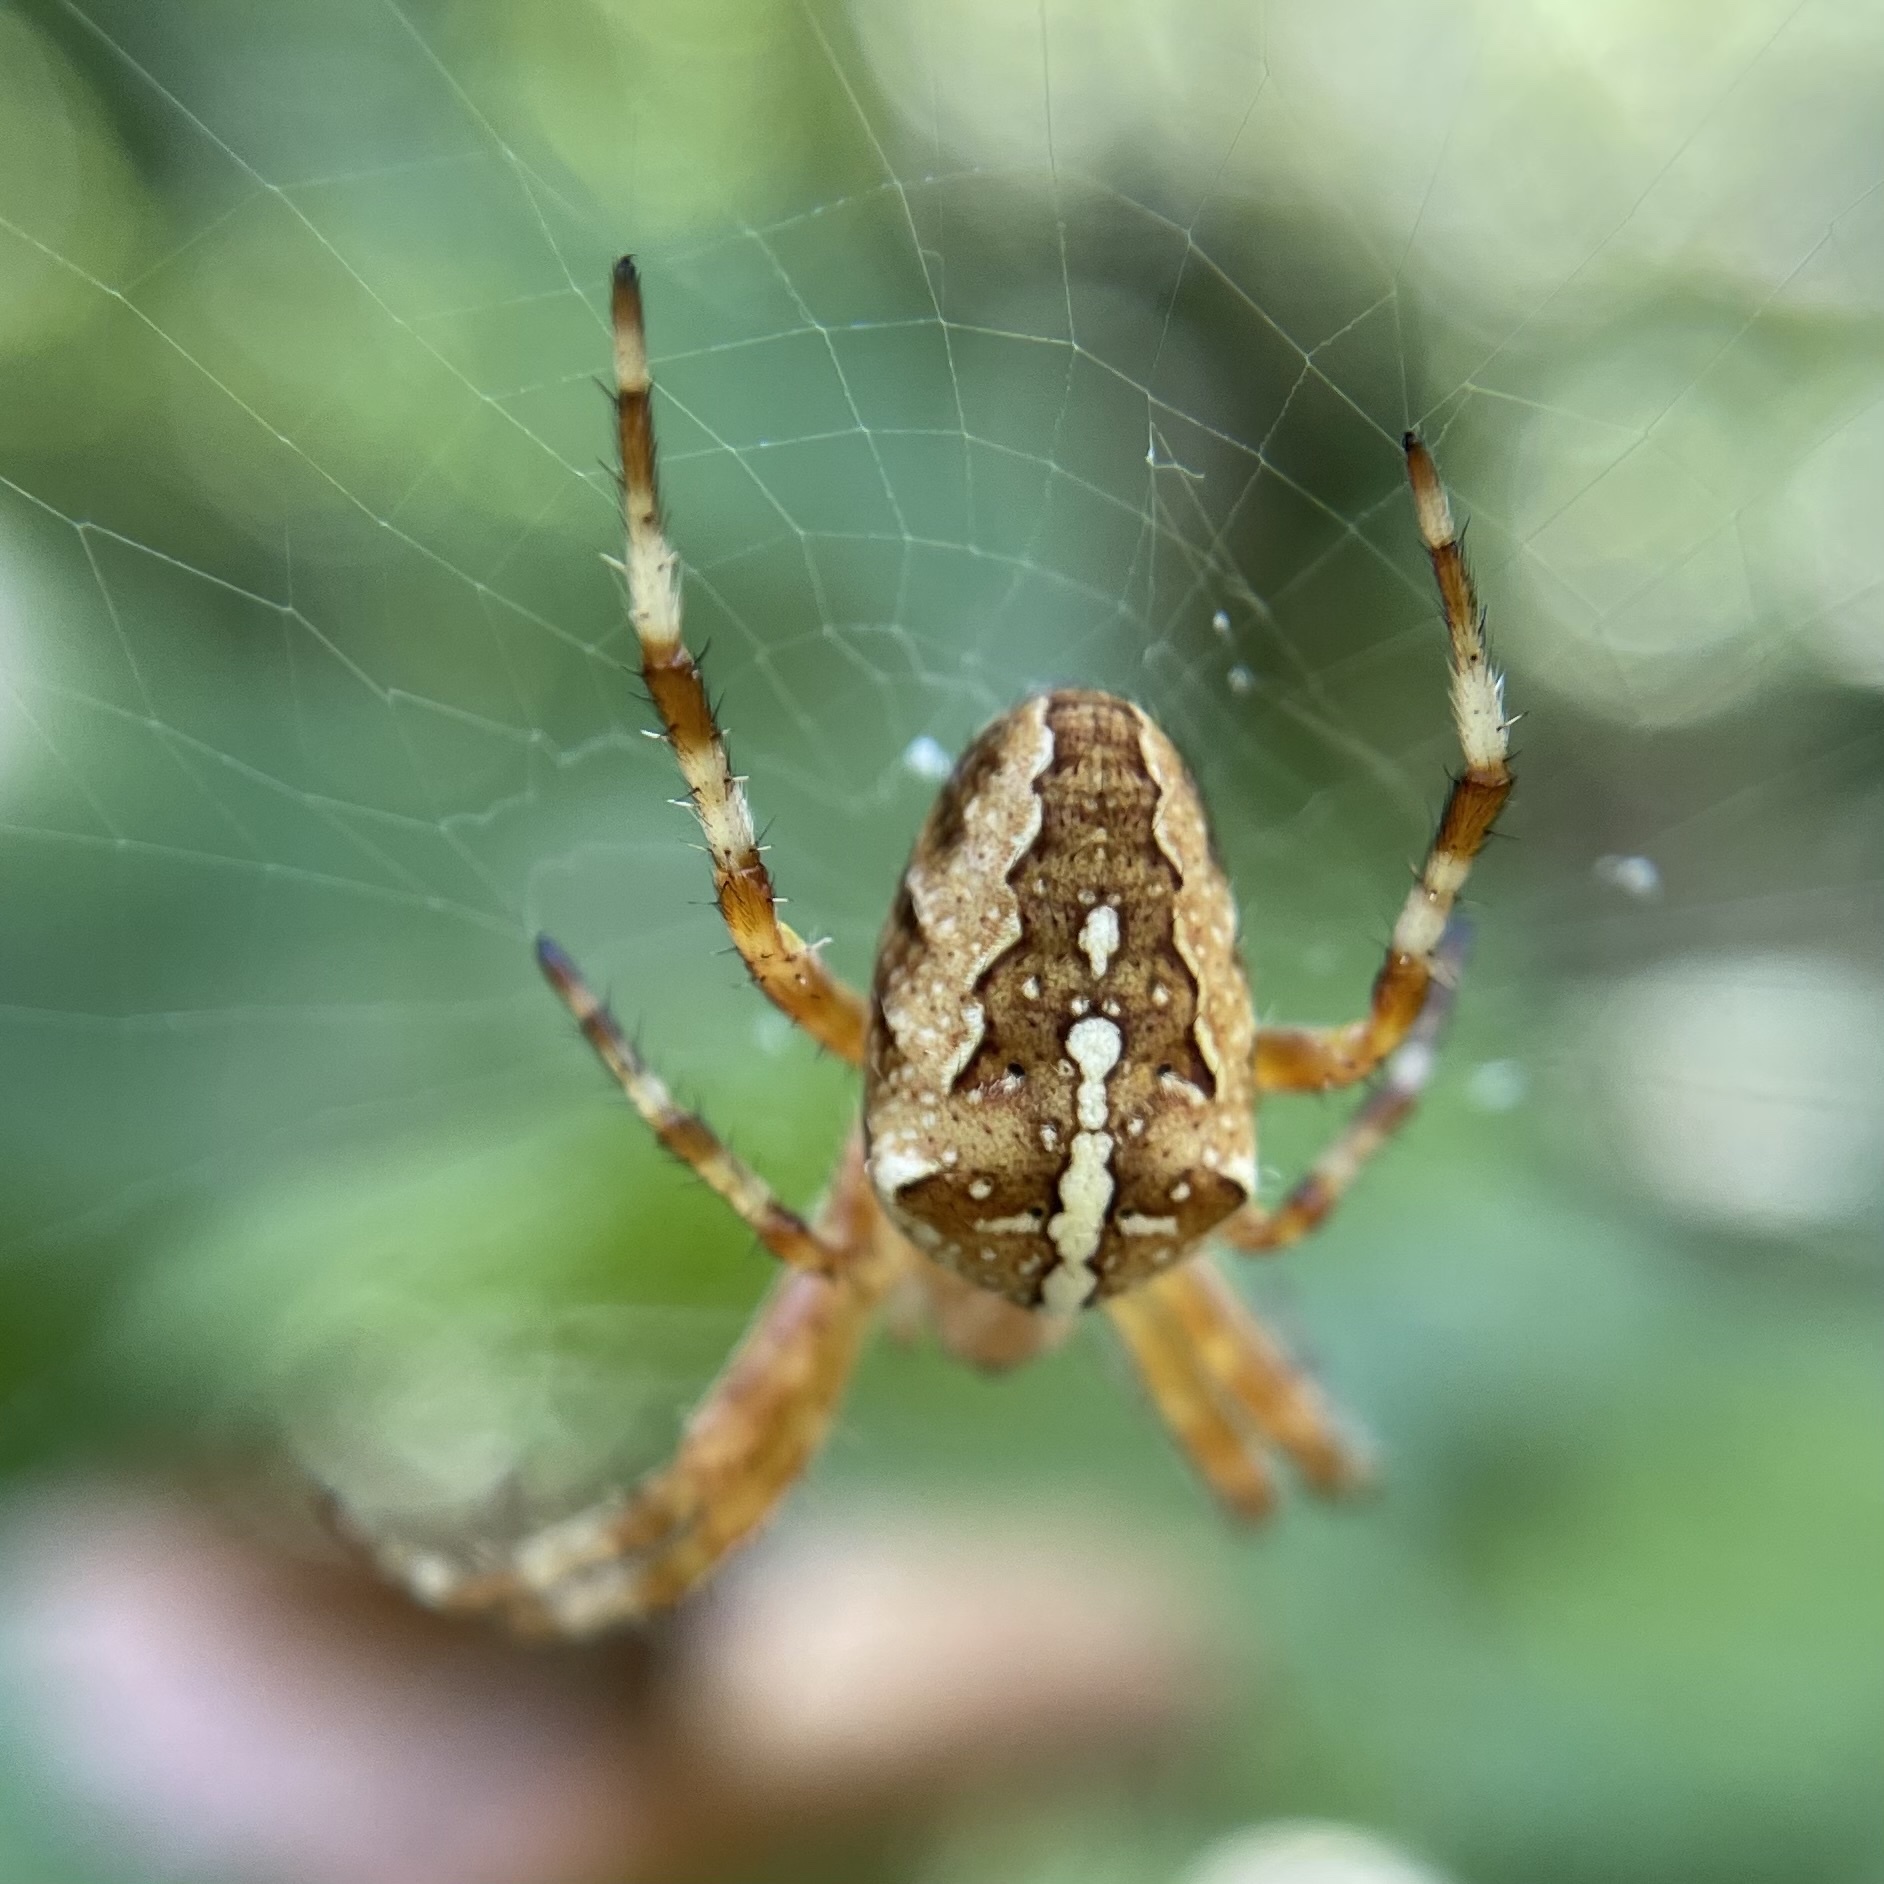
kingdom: Animalia
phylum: Arthropoda
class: Arachnida
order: Araneae
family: Araneidae
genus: Araneus
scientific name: Araneus diadematus
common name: Cross orbweaver
